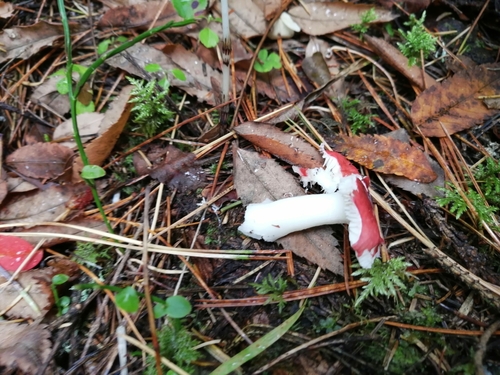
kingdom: Fungi
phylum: Basidiomycota
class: Agaricomycetes
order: Russulales
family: Russulaceae
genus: Russula
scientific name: Russula
